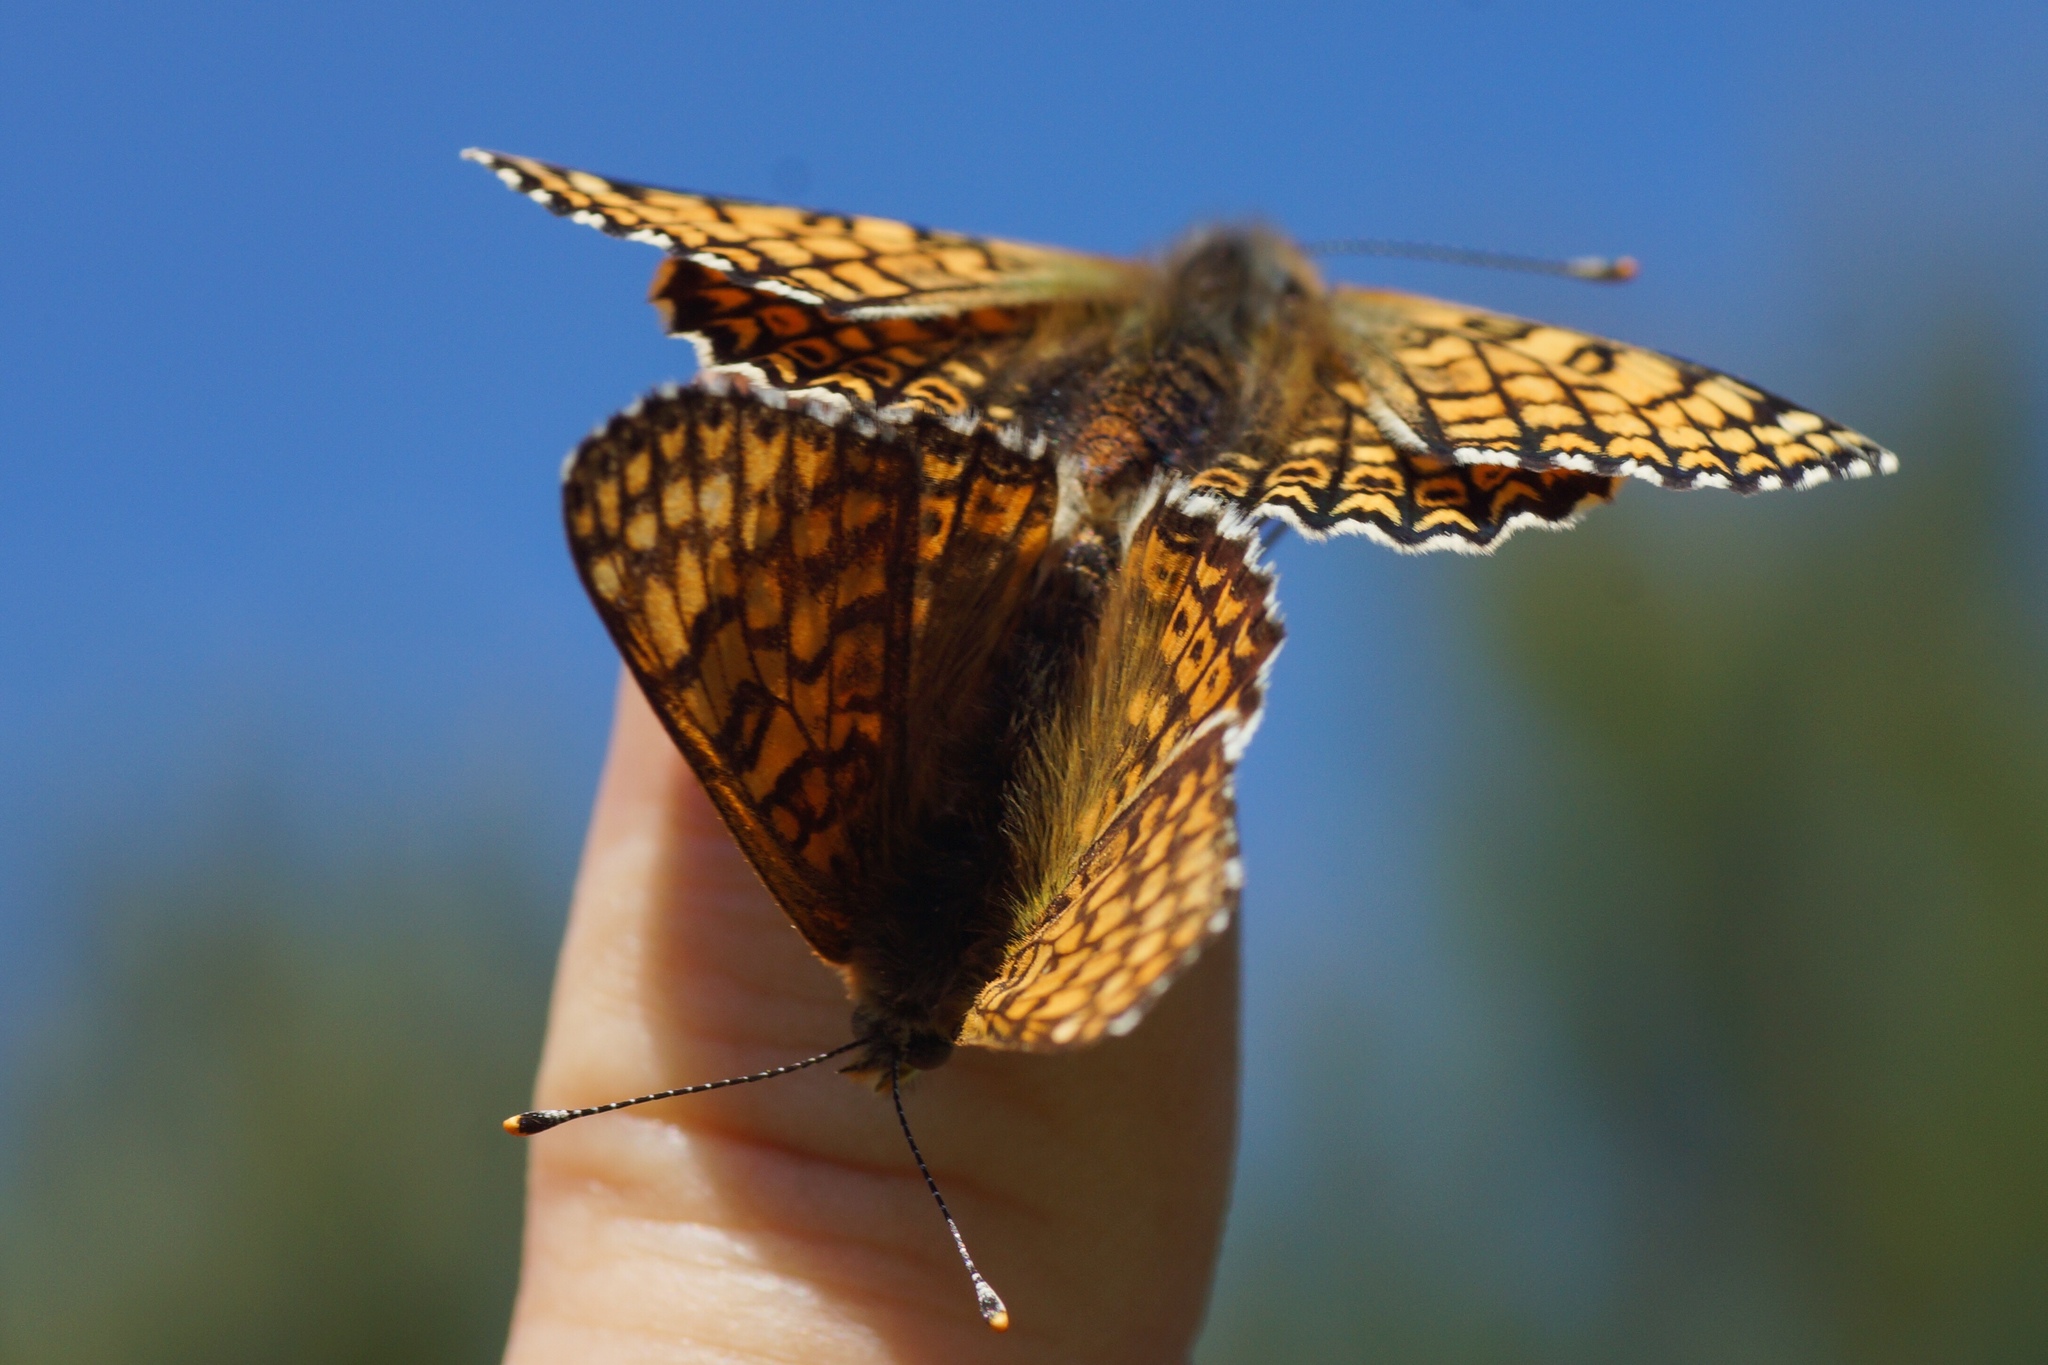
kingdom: Animalia
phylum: Arthropoda
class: Insecta
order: Lepidoptera
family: Nymphalidae
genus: Melitaea
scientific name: Melitaea cinxia
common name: Glanville fritillary
